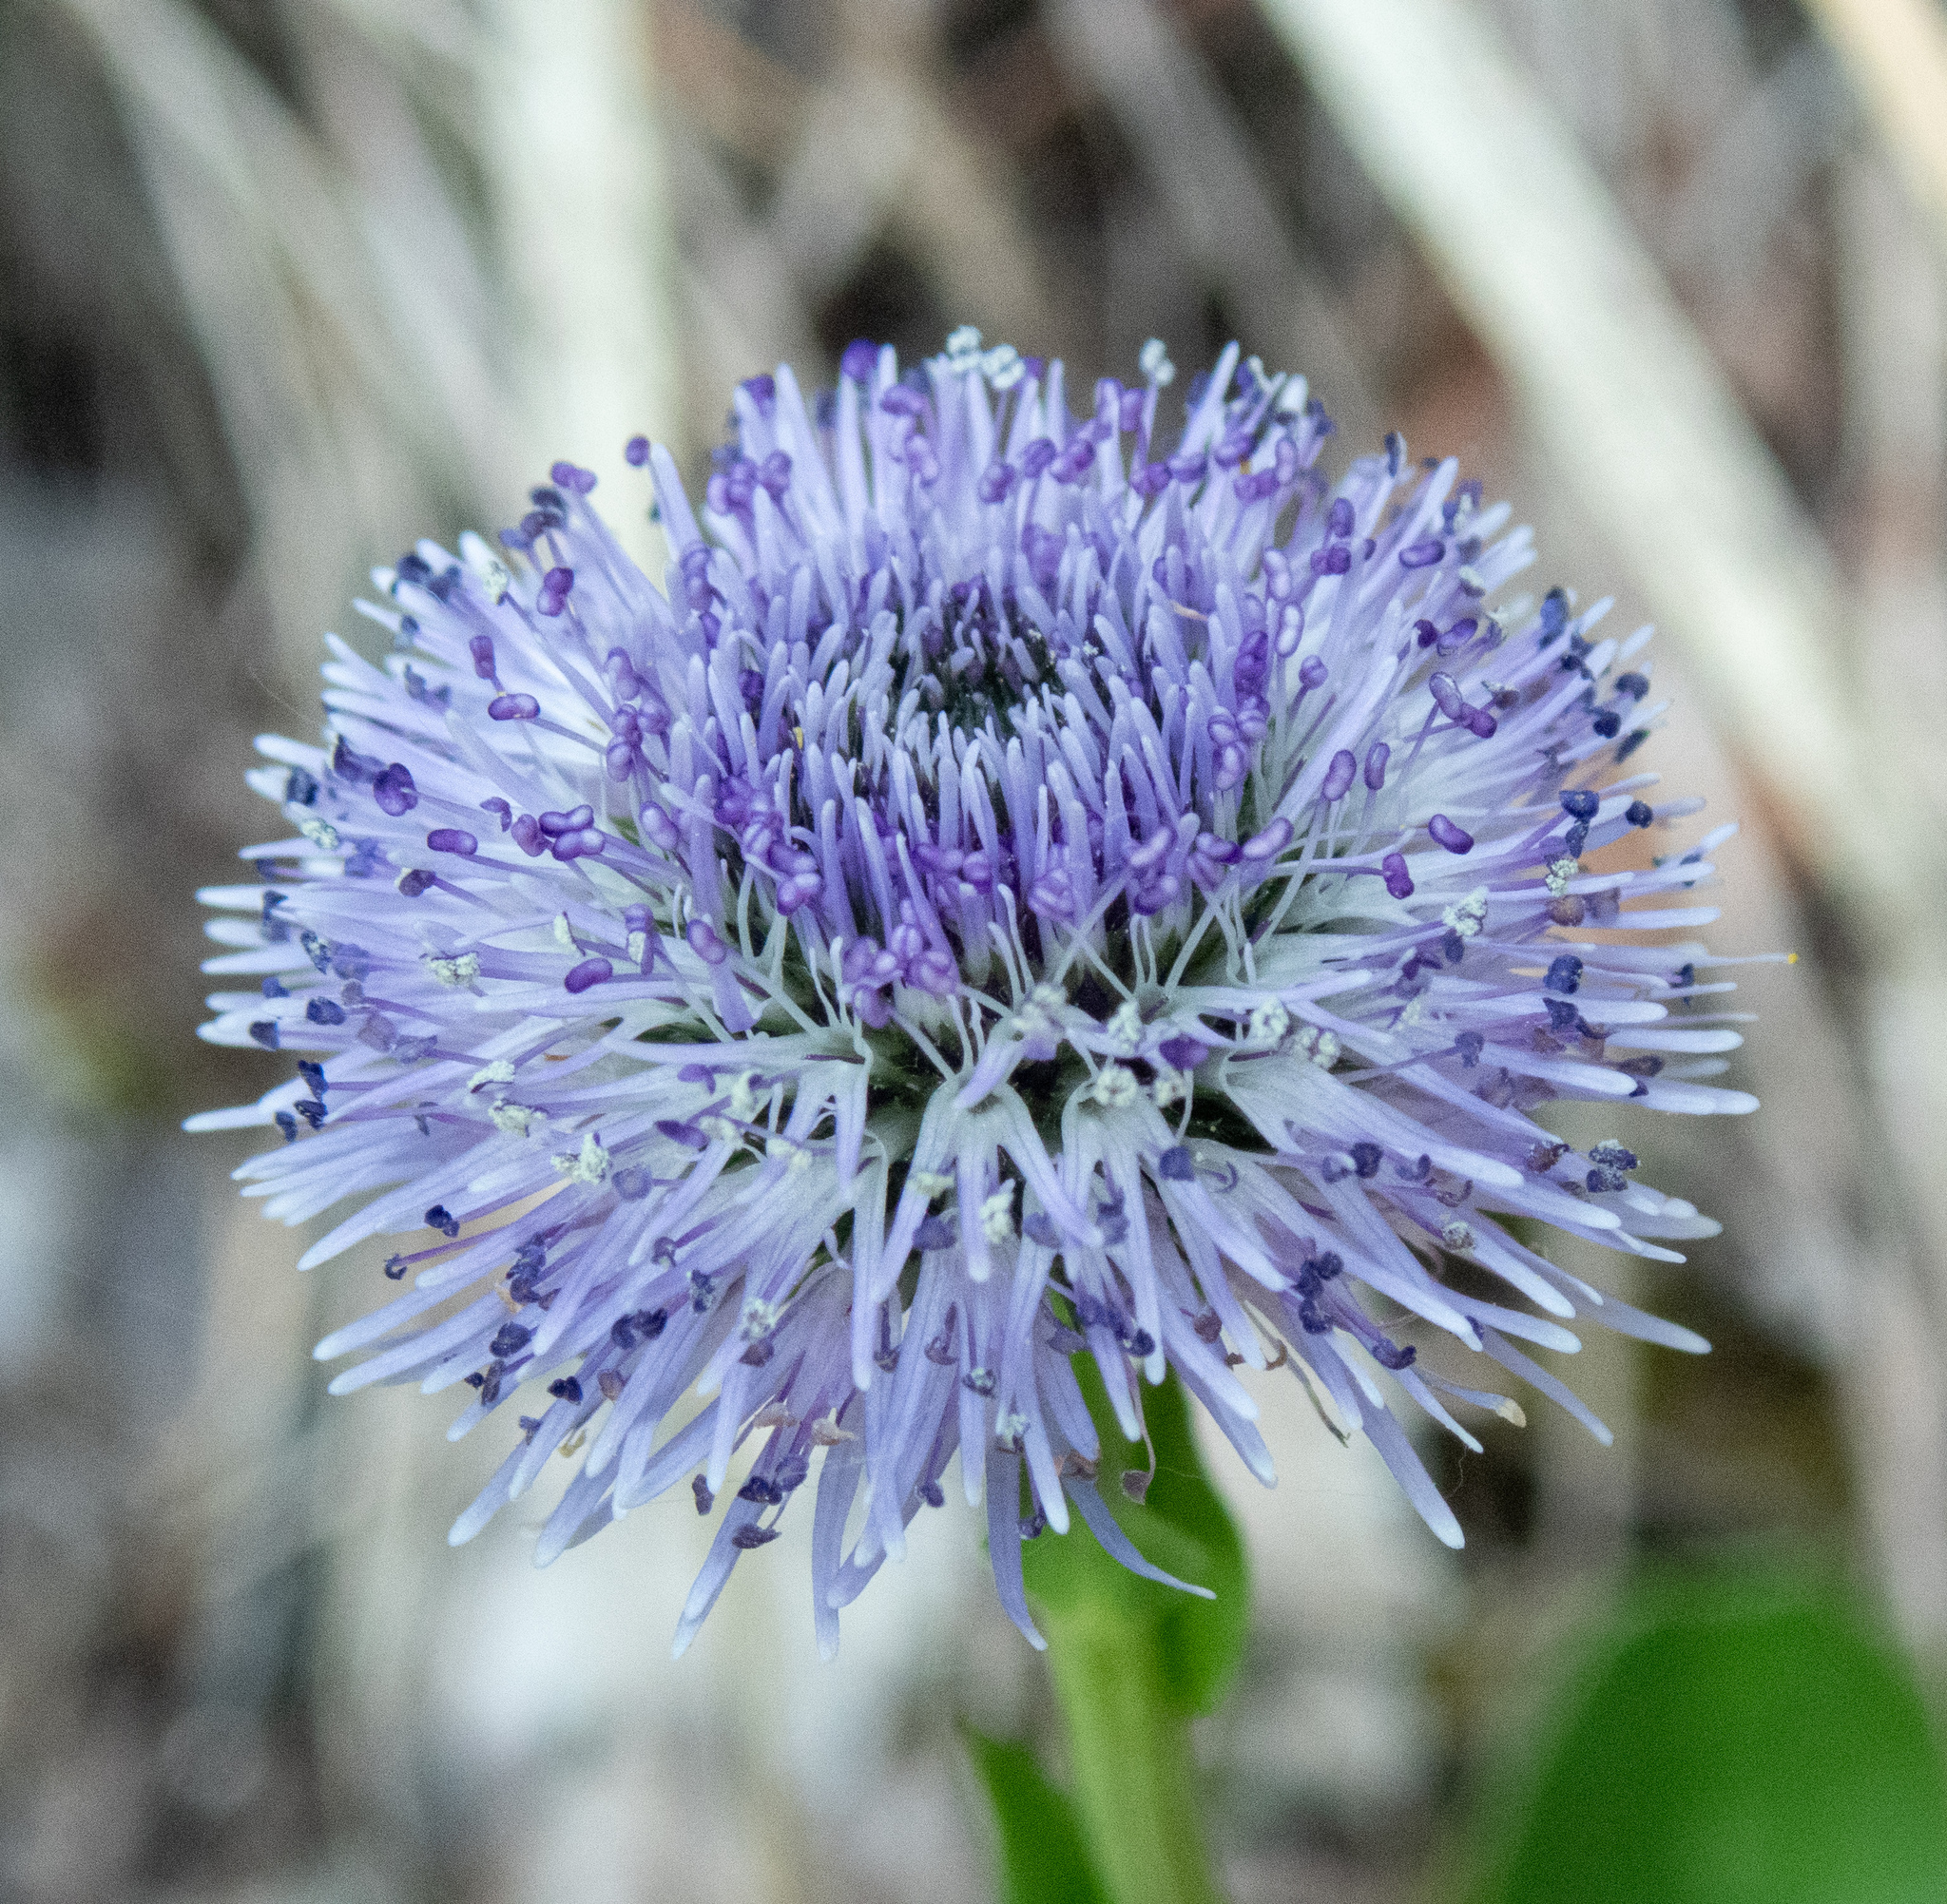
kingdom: Plantae
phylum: Tracheophyta
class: Magnoliopsida
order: Lamiales
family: Plantaginaceae
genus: Globularia
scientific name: Globularia bisnagarica
